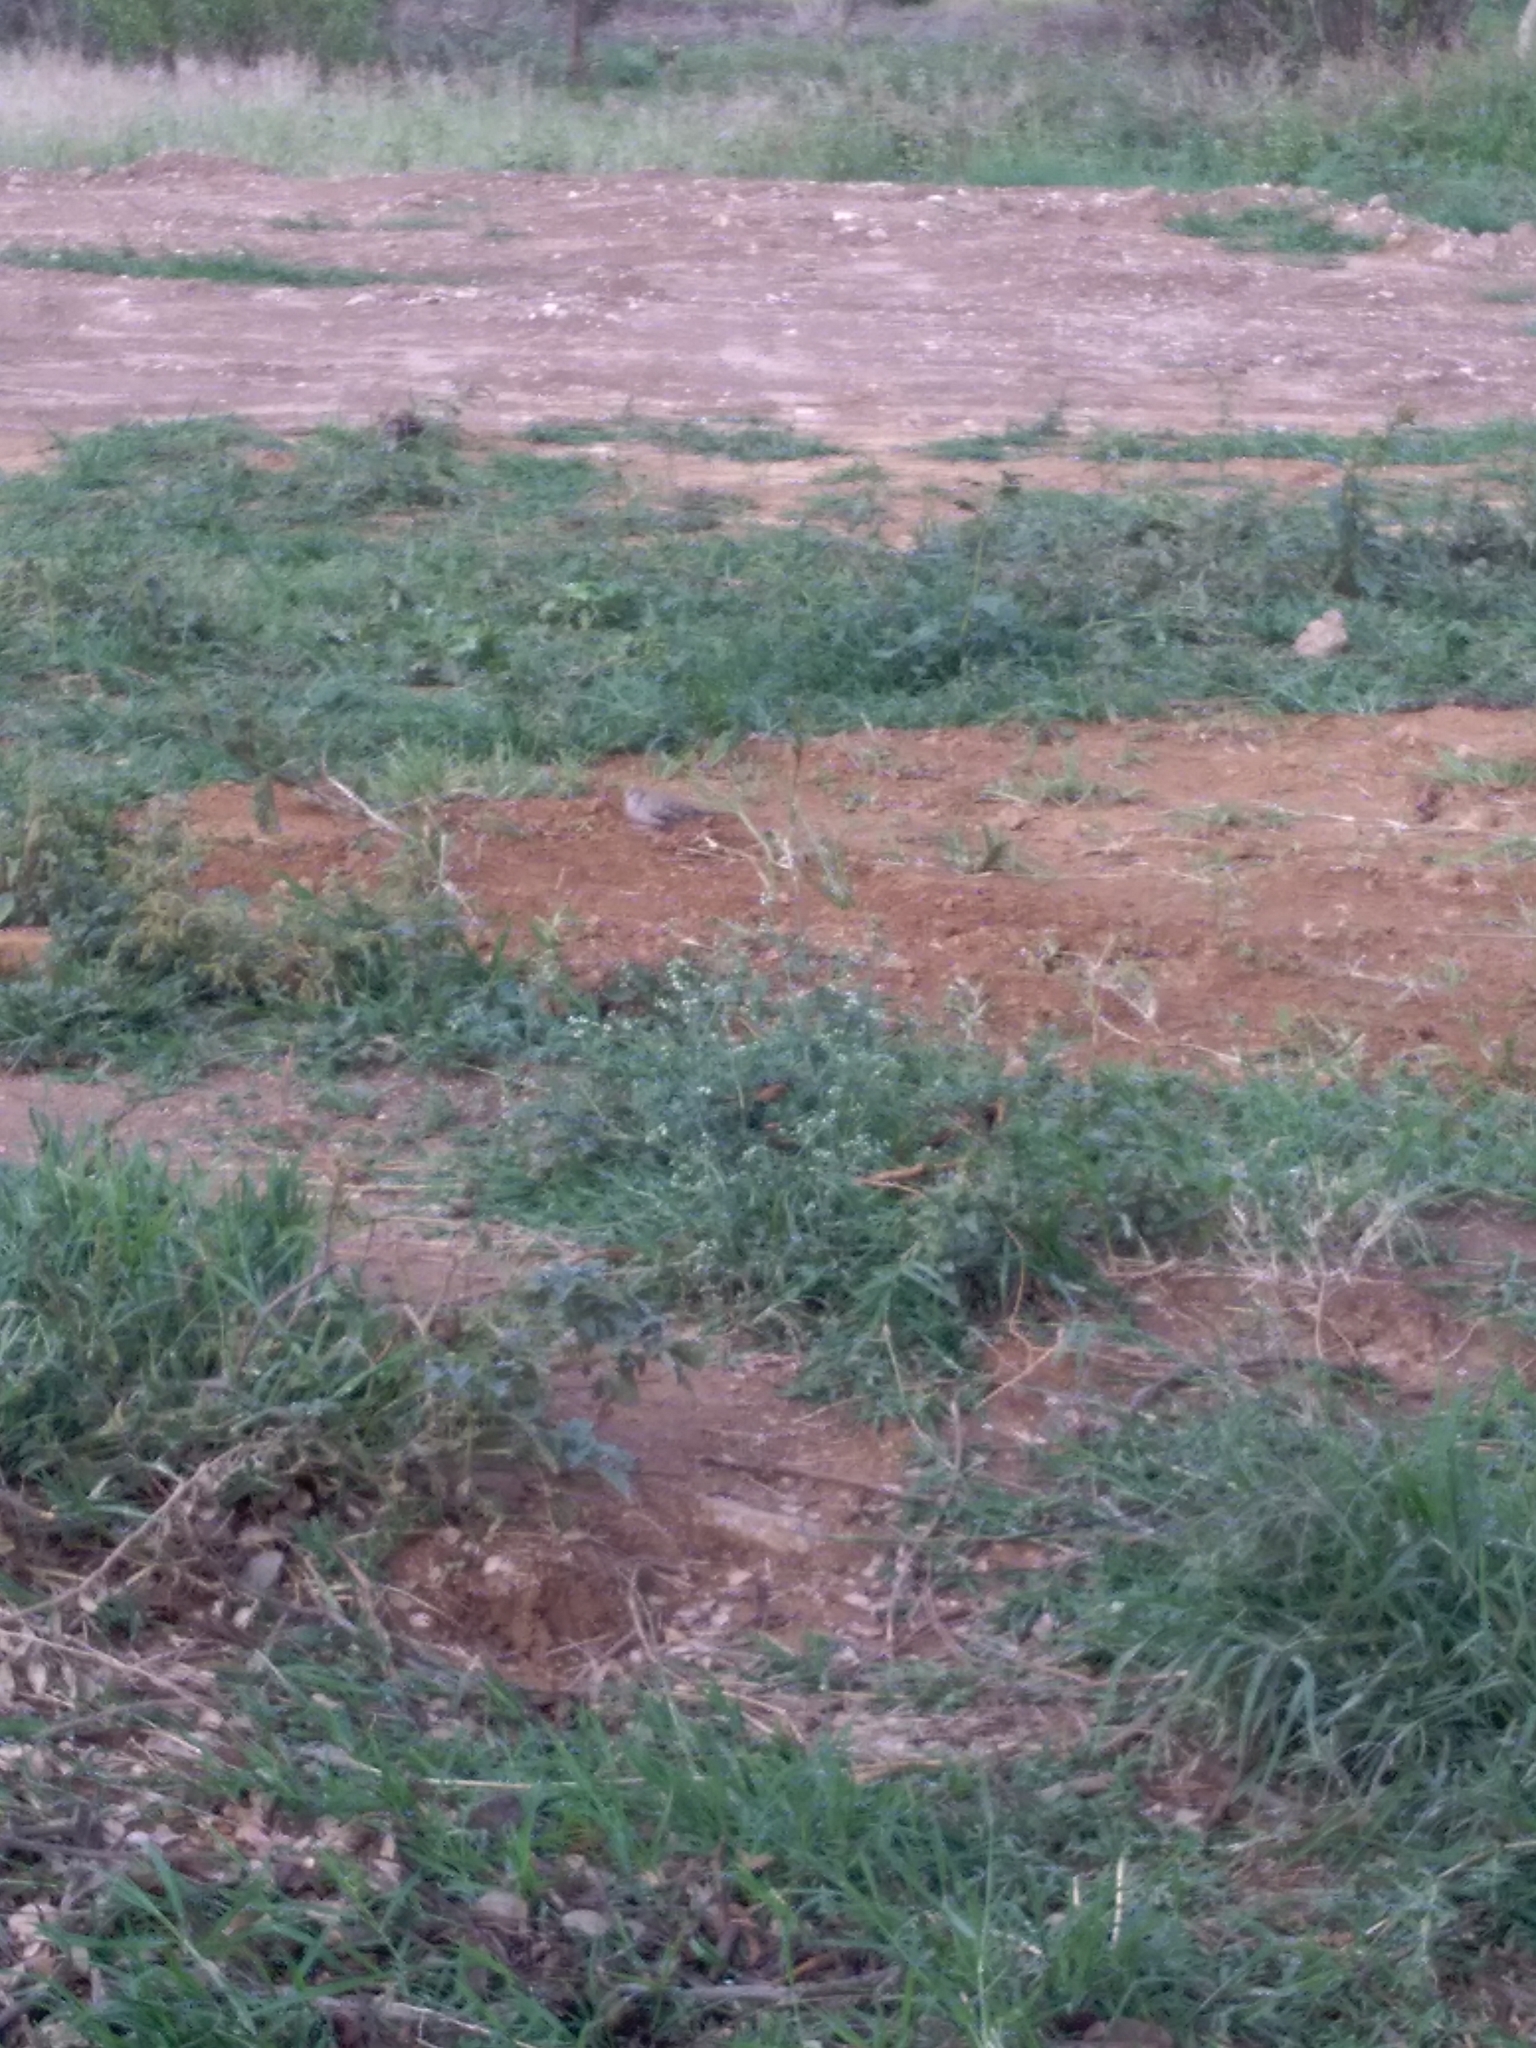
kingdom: Animalia
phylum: Chordata
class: Aves
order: Columbiformes
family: Columbidae
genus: Columbina
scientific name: Columbina inca
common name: Inca dove
